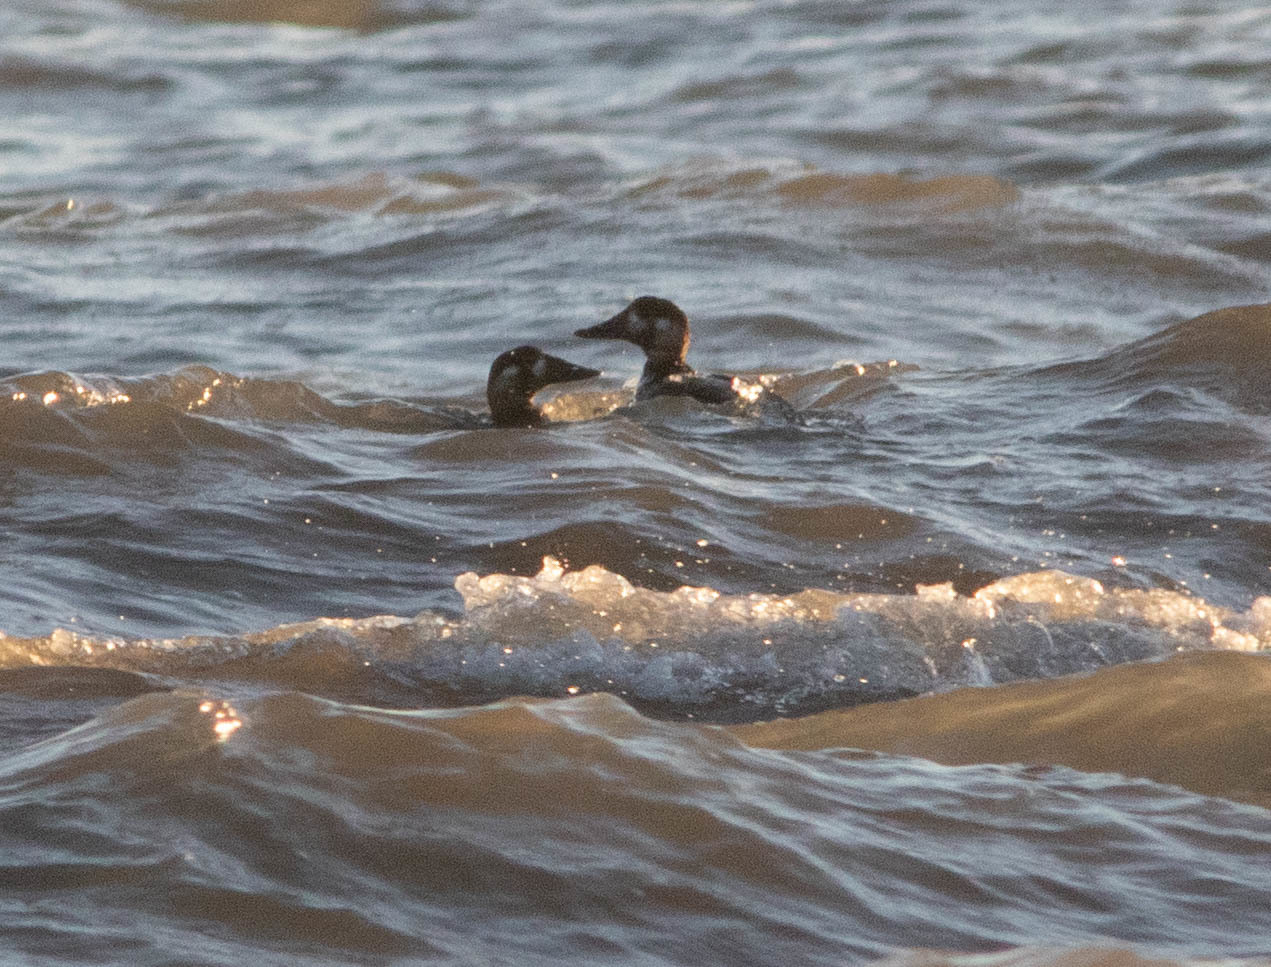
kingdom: Animalia
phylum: Chordata
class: Aves
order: Anseriformes
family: Anatidae
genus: Melanitta
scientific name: Melanitta perspicillata
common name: Surf scoter
